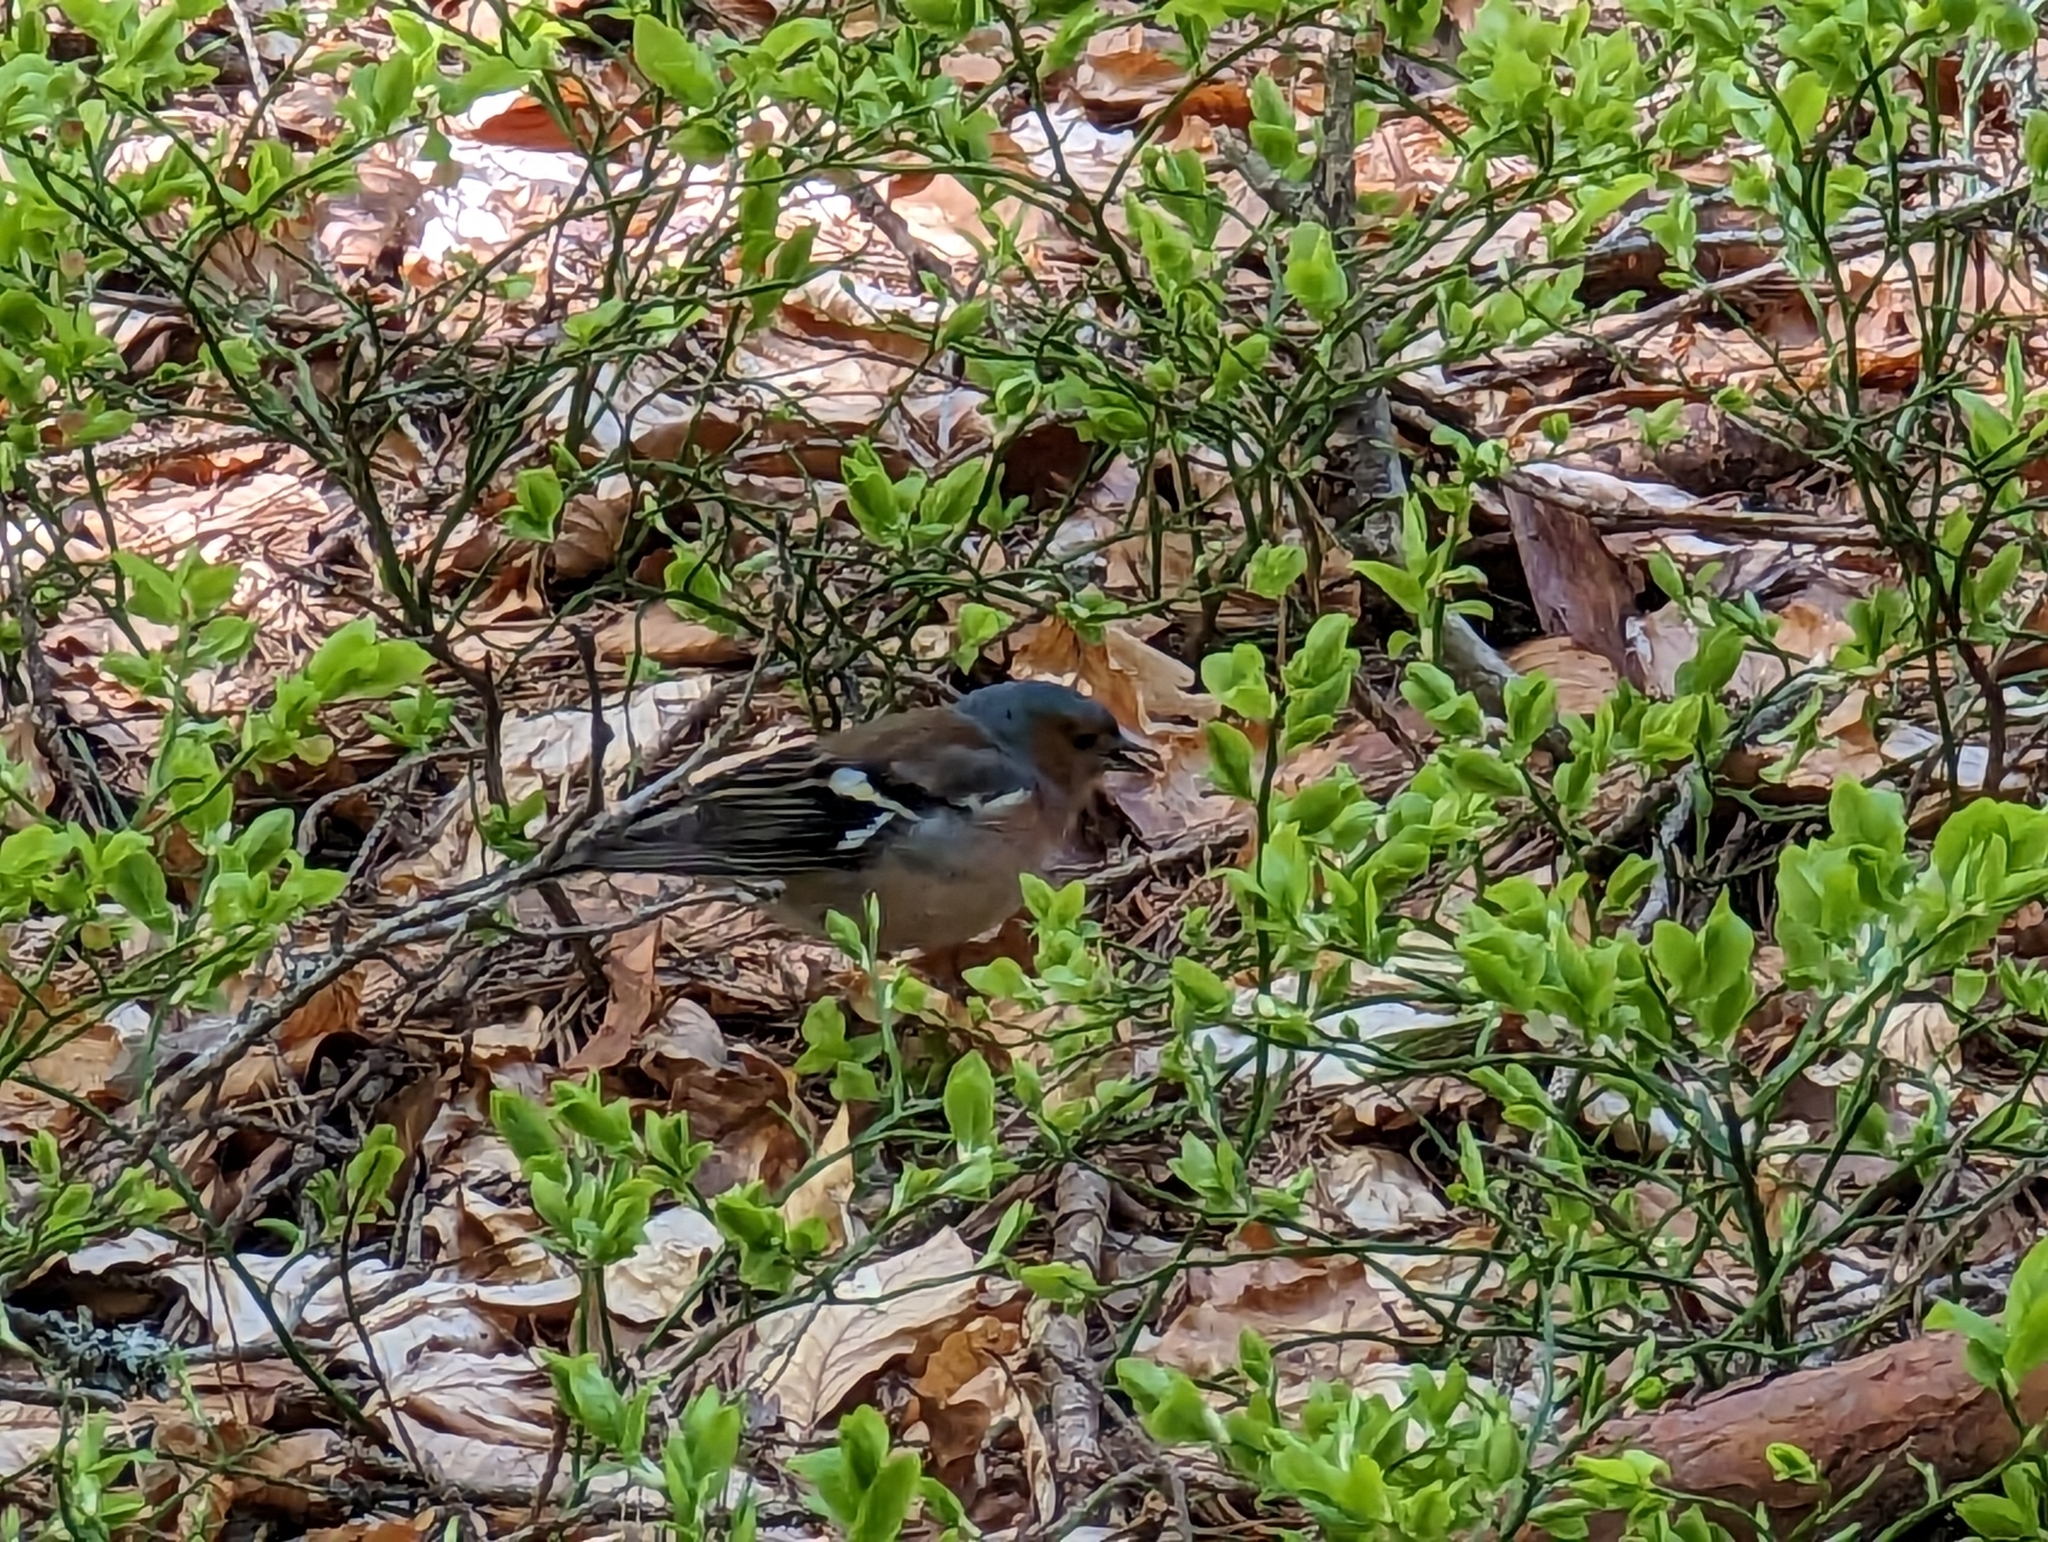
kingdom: Animalia
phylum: Chordata
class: Aves
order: Passeriformes
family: Fringillidae
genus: Fringilla
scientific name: Fringilla coelebs
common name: Common chaffinch
